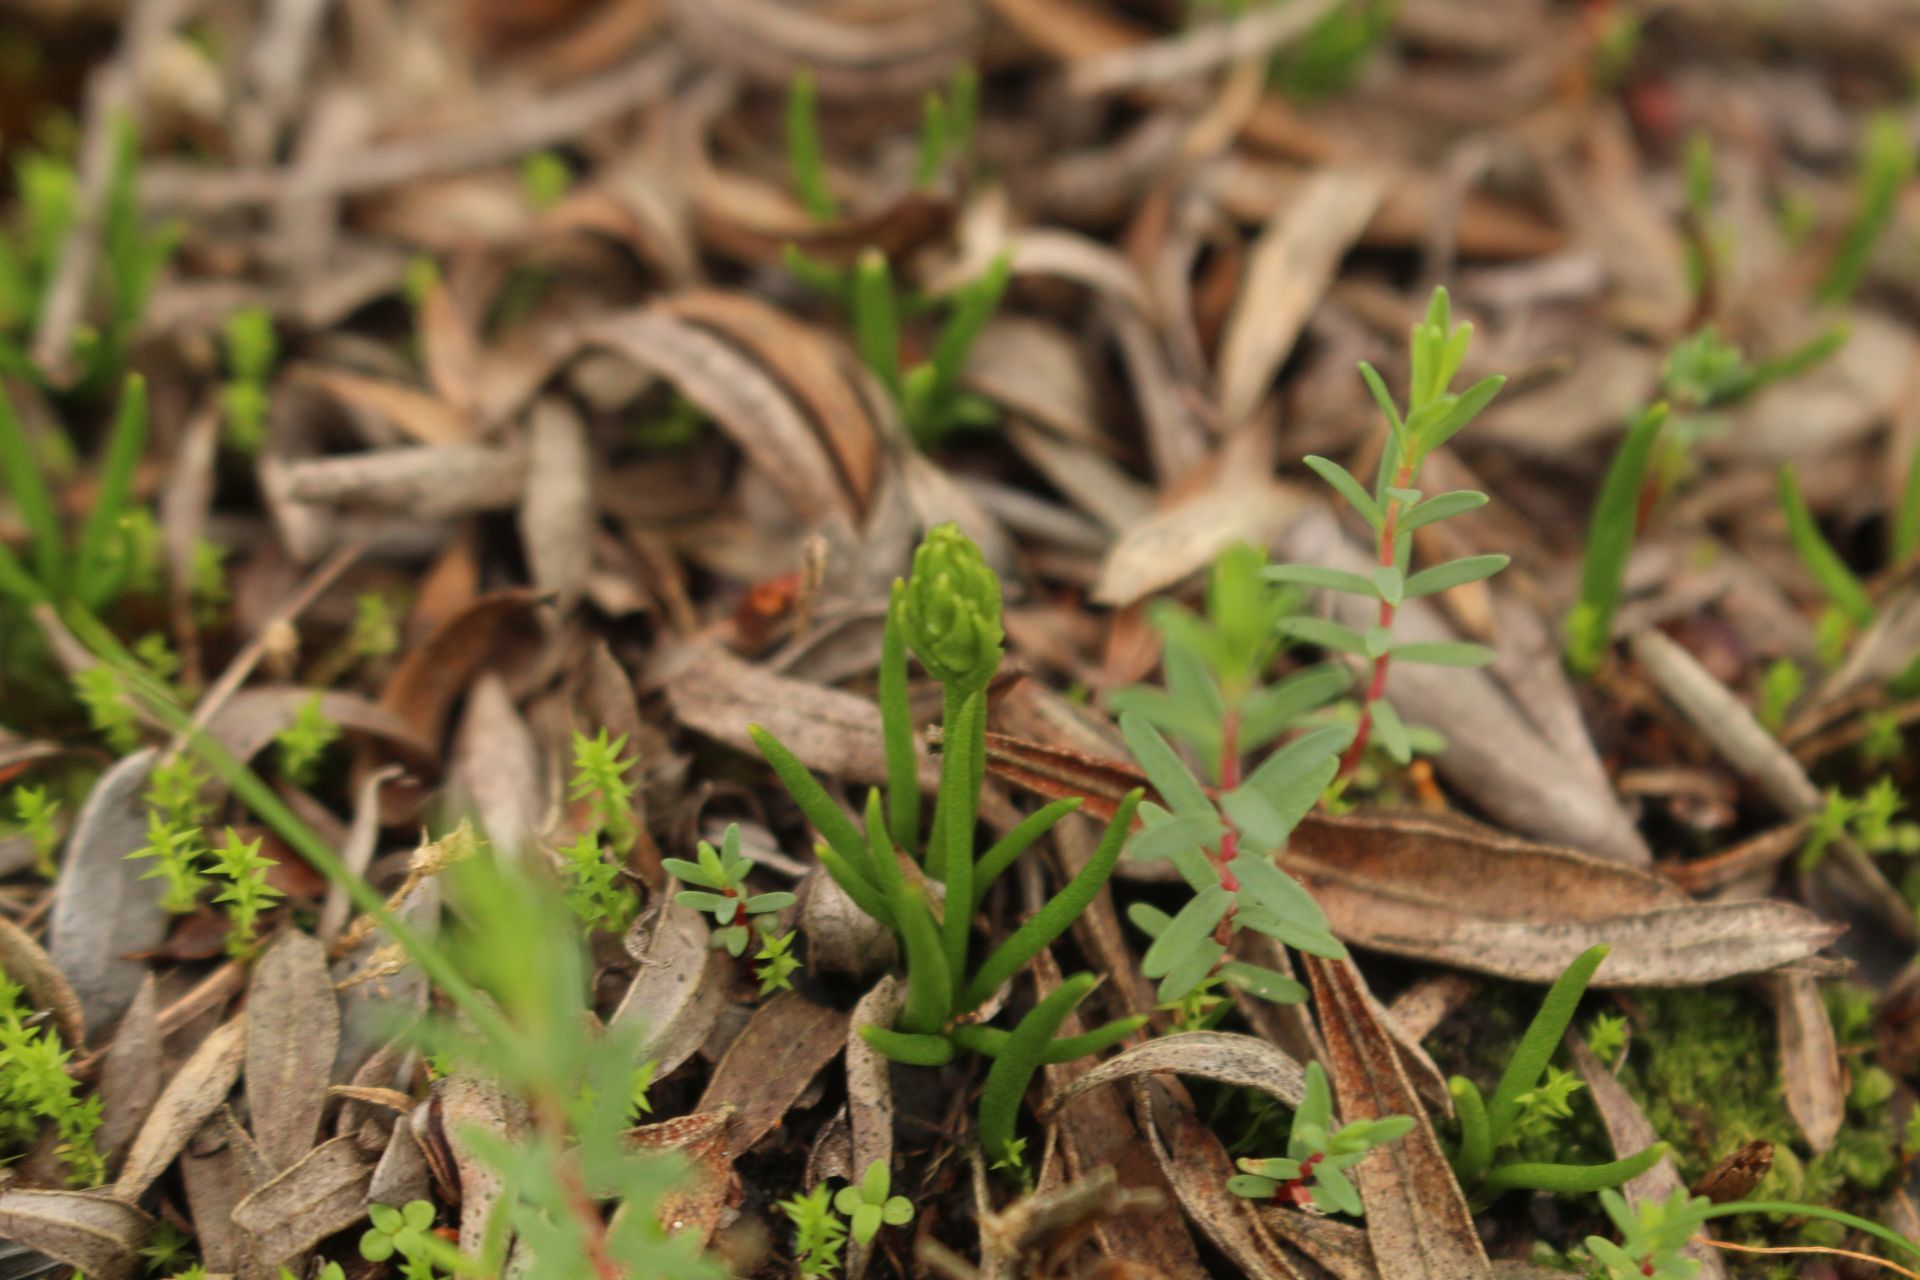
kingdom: Plantae
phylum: Tracheophyta
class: Lycopodiopsida
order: Lycopodiales
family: Lycopodiaceae
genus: Phylloglossum
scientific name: Phylloglossum drummondii
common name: Pigmy-club-moss
